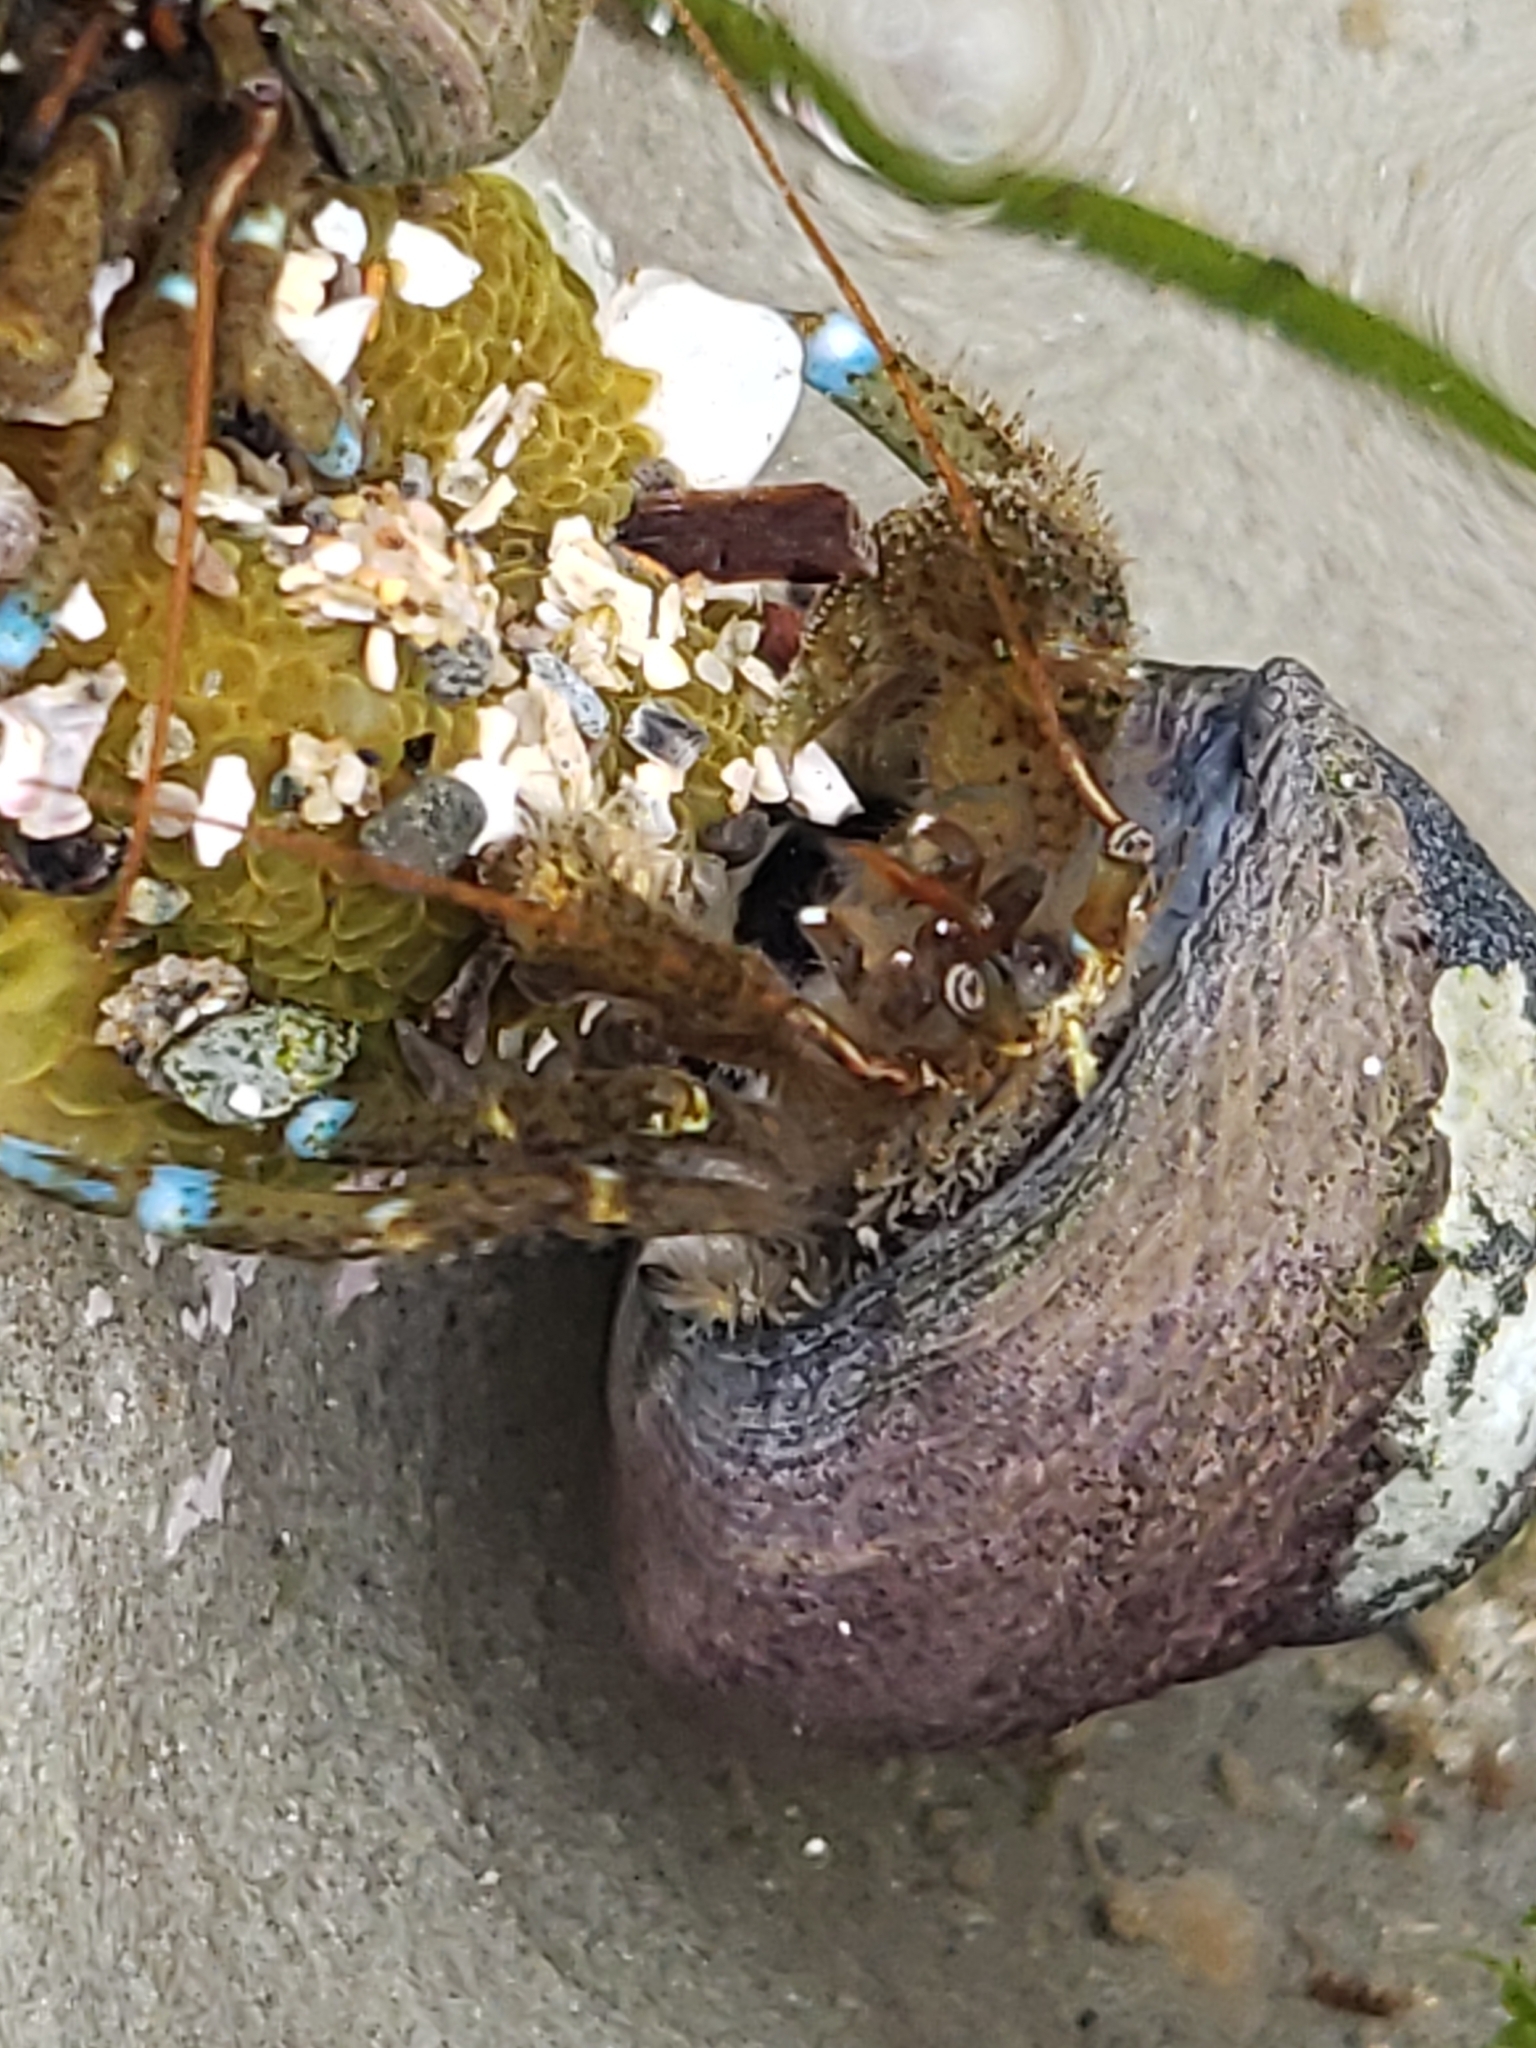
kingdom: Animalia
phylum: Arthropoda
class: Malacostraca
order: Decapoda
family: Paguridae
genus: Pagurus
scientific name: Pagurus samuelis
